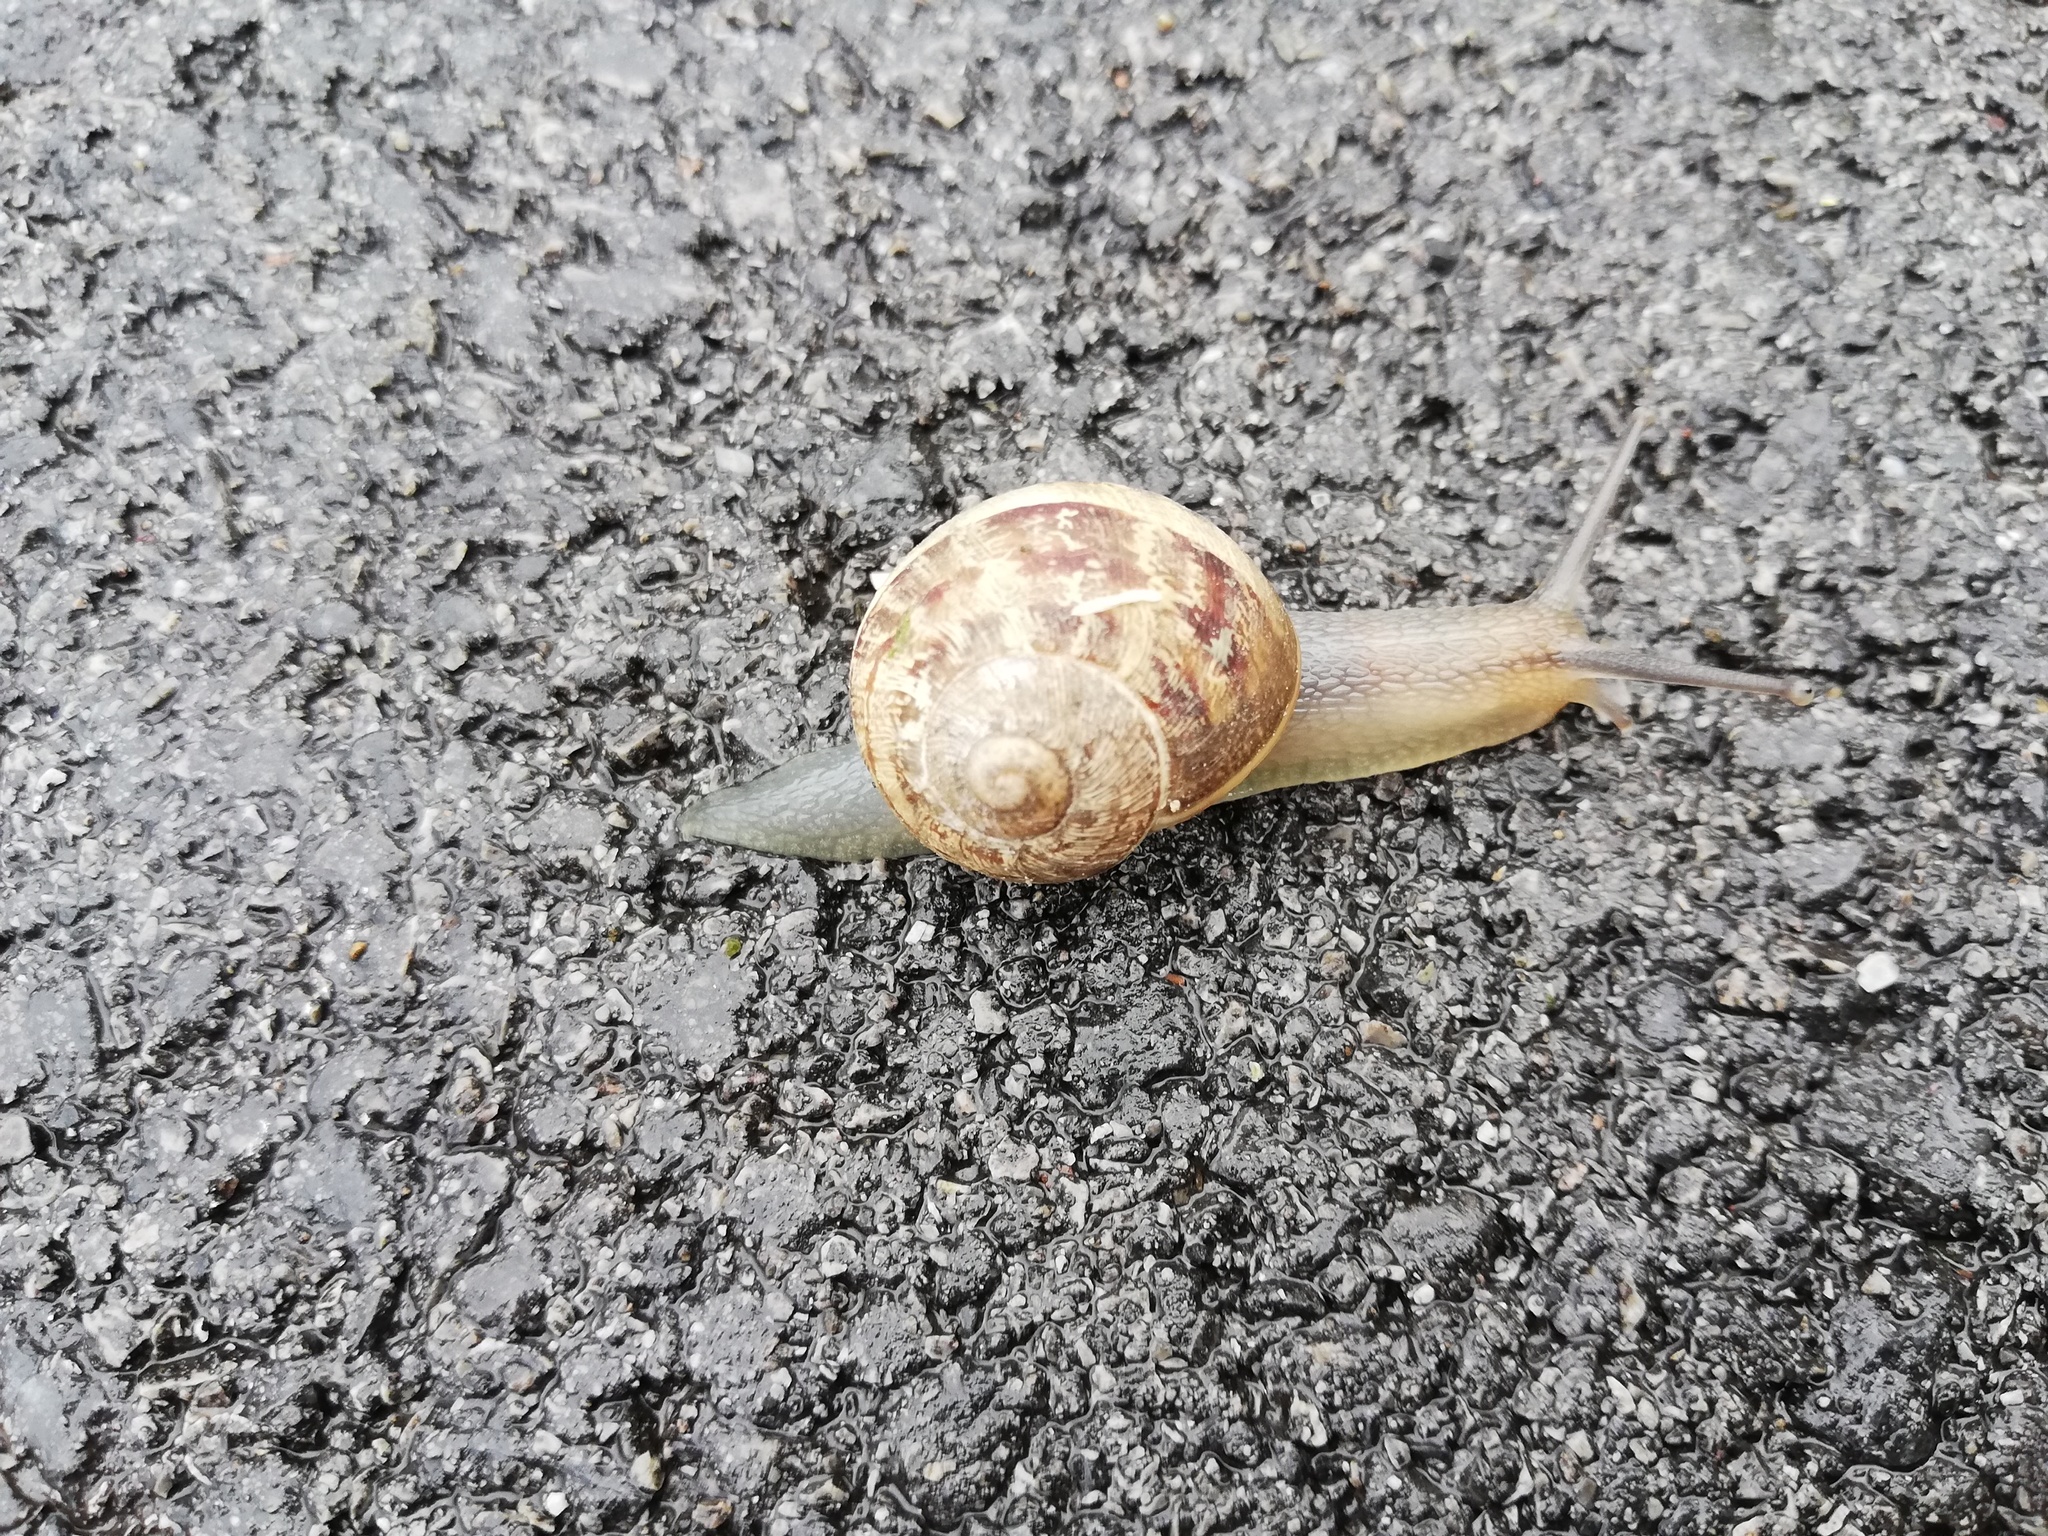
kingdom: Animalia
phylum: Mollusca
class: Gastropoda
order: Stylommatophora
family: Helicidae
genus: Cornu
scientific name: Cornu aspersum
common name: Brown garden snail
